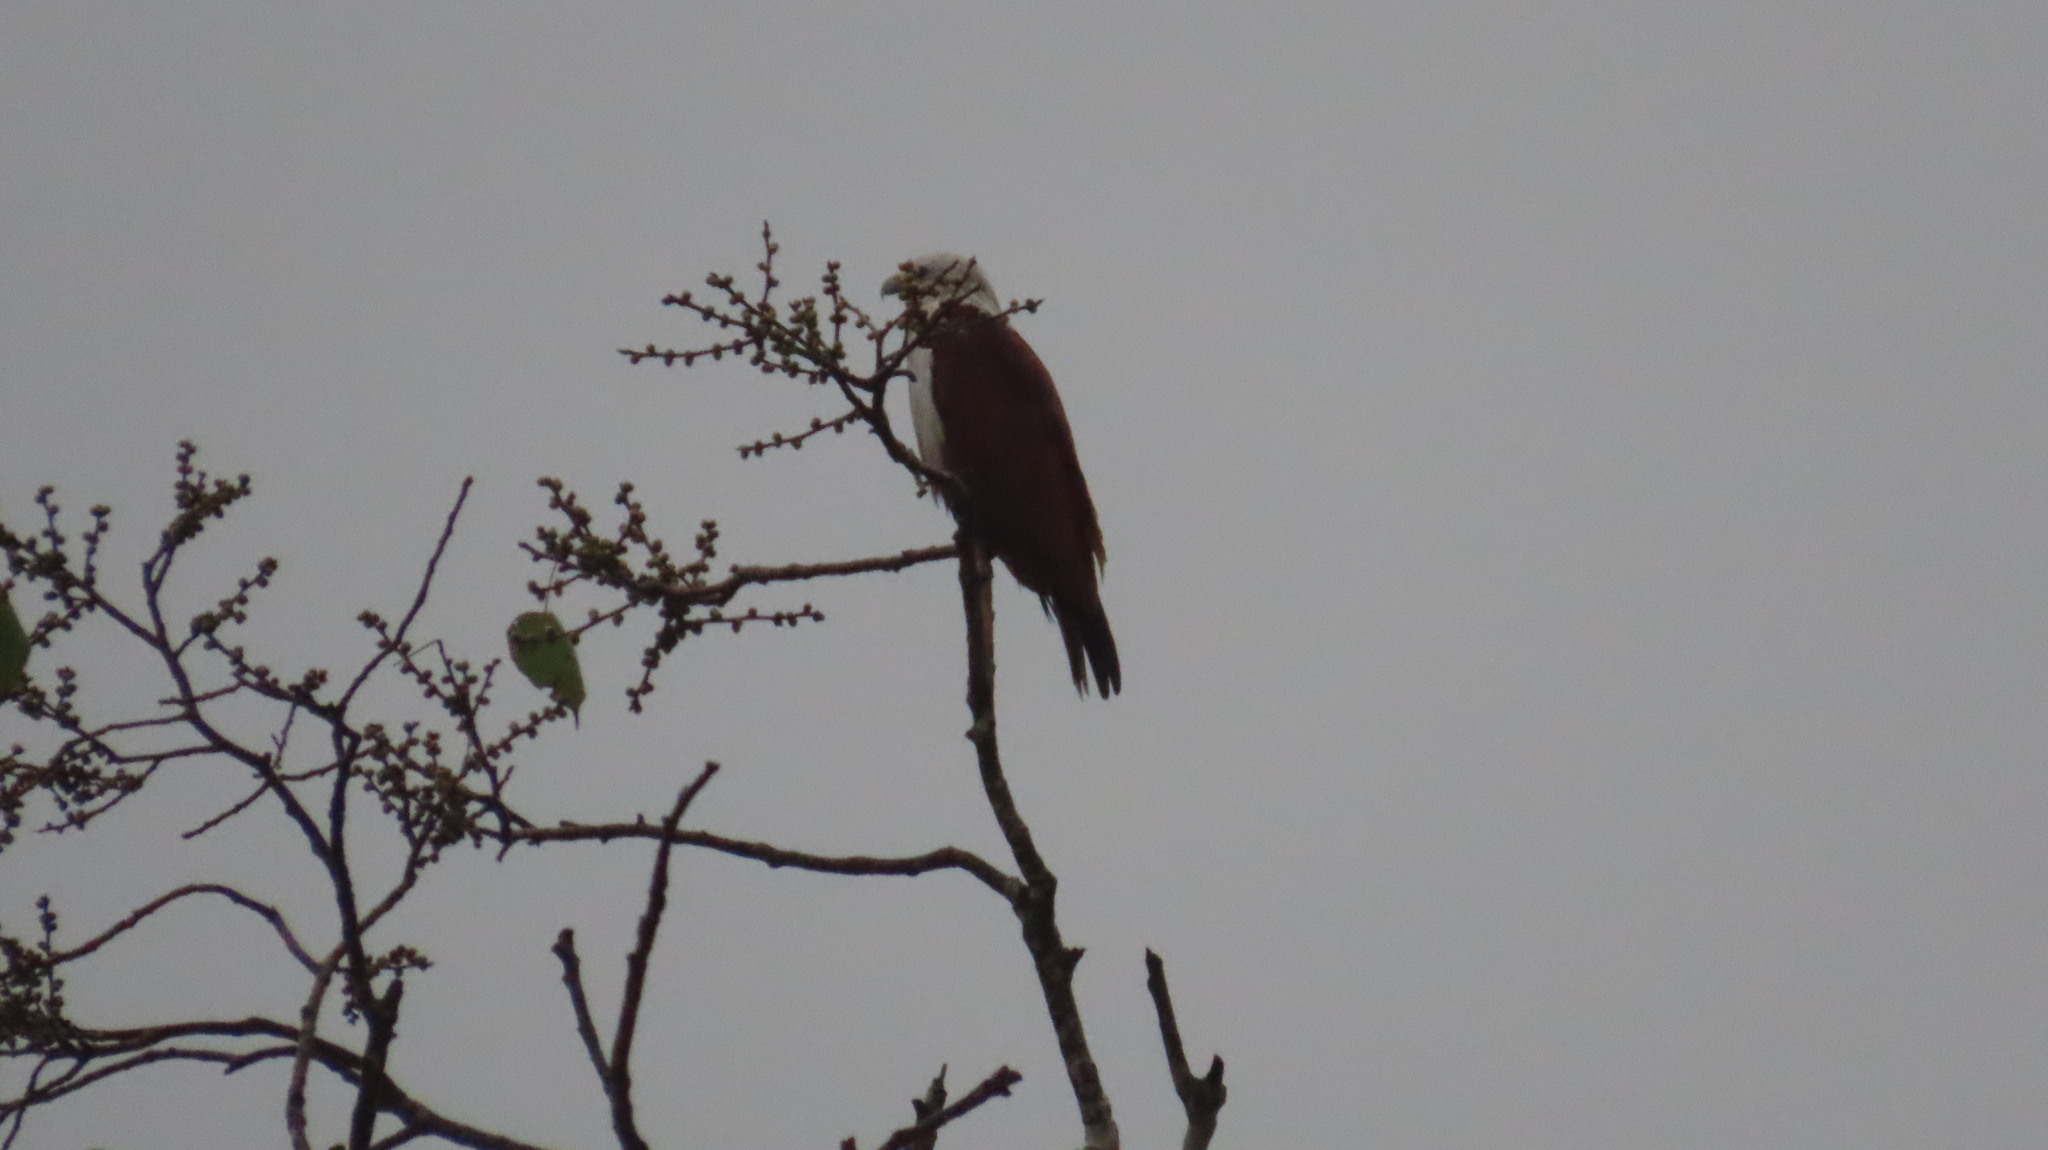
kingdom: Animalia
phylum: Chordata
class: Aves
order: Accipitriformes
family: Accipitridae
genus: Haliastur
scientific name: Haliastur indus
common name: Brahminy kite
